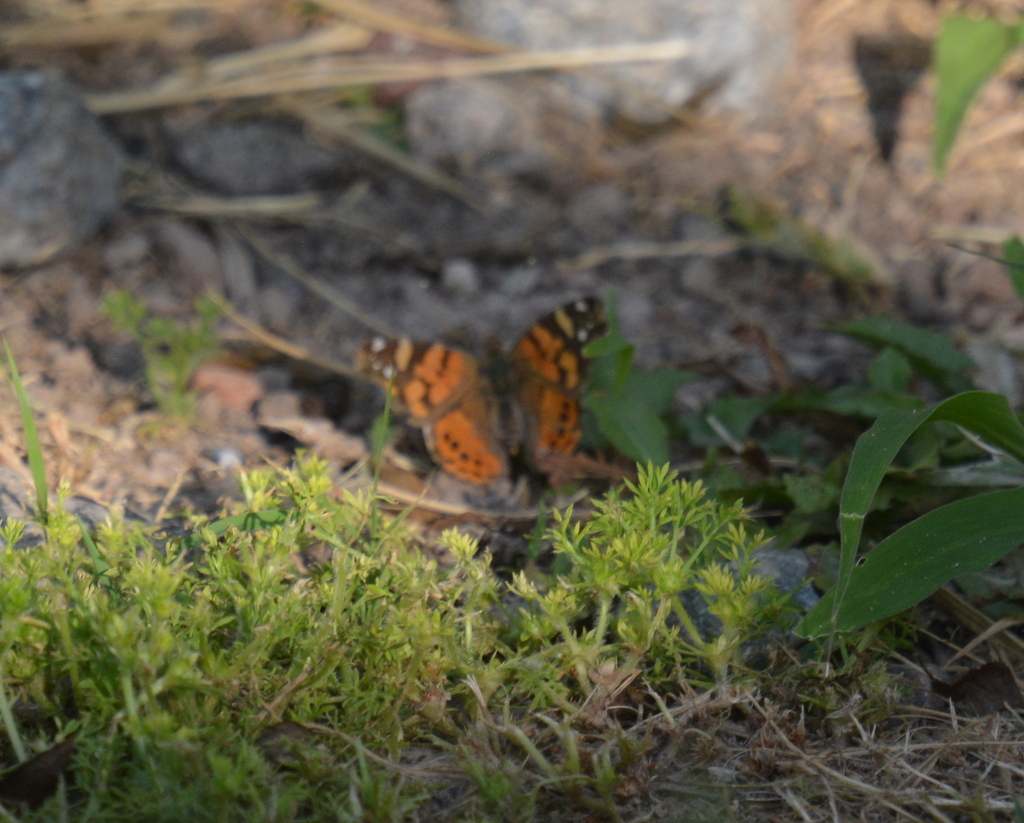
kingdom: Animalia
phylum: Arthropoda
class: Insecta
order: Lepidoptera
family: Nymphalidae
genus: Vanessa
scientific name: Vanessa carye
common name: Subtropical lady
